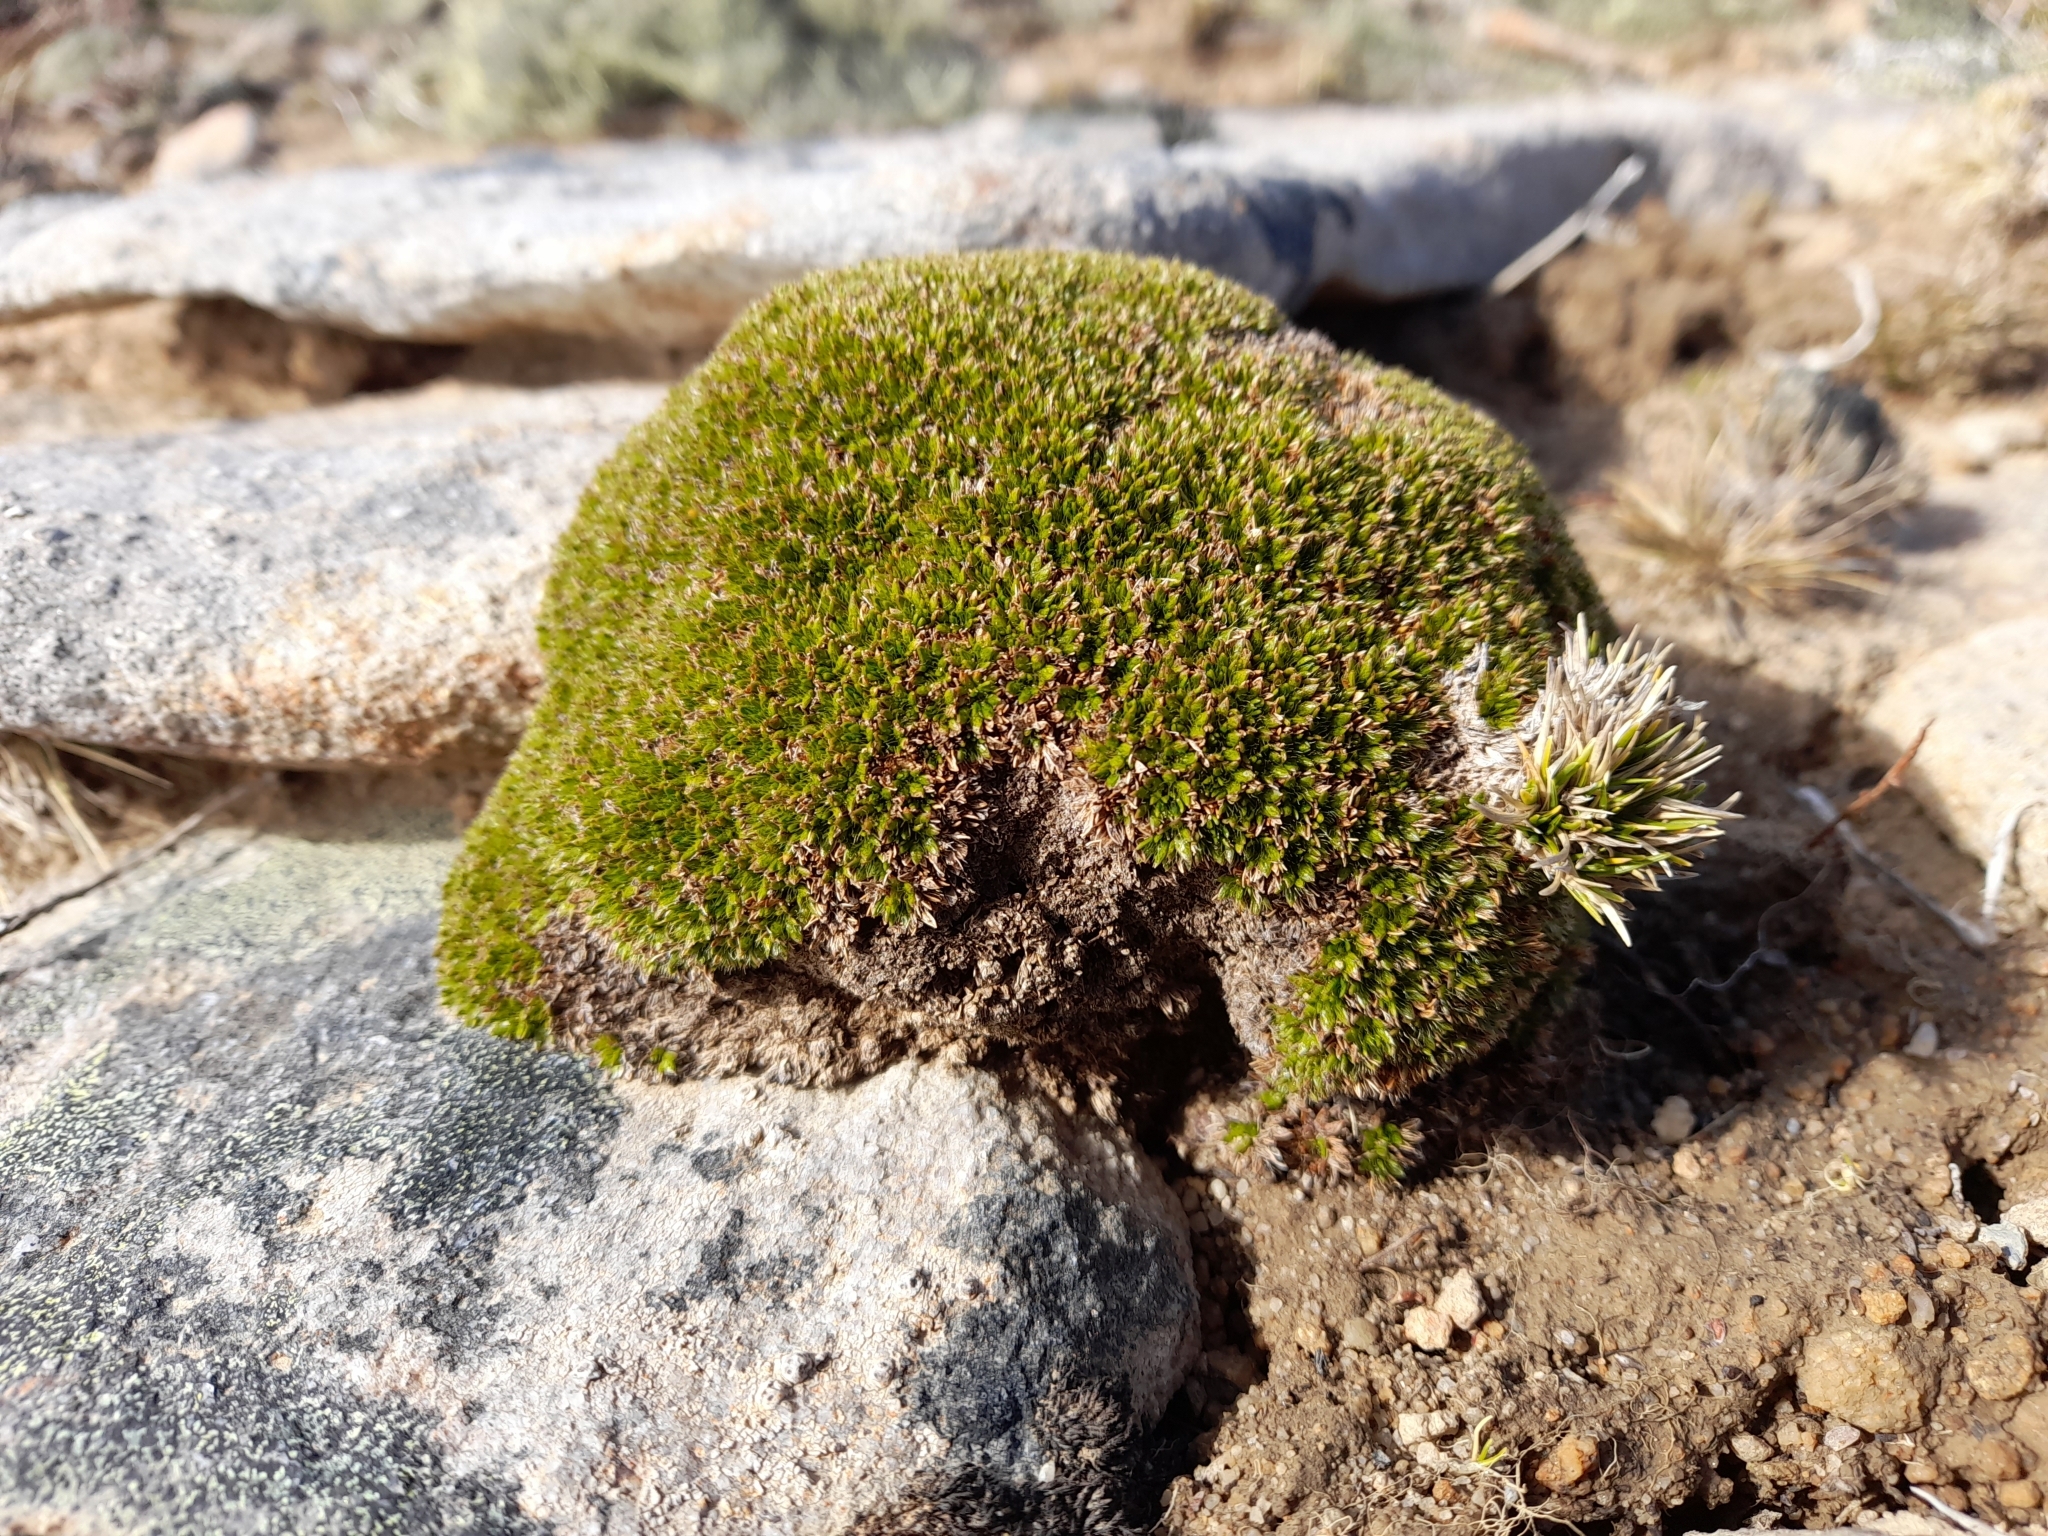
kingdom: Plantae
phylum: Tracheophyta
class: Magnoliopsida
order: Apiales
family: Apiaceae
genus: Azorella
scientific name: Azorella selago
